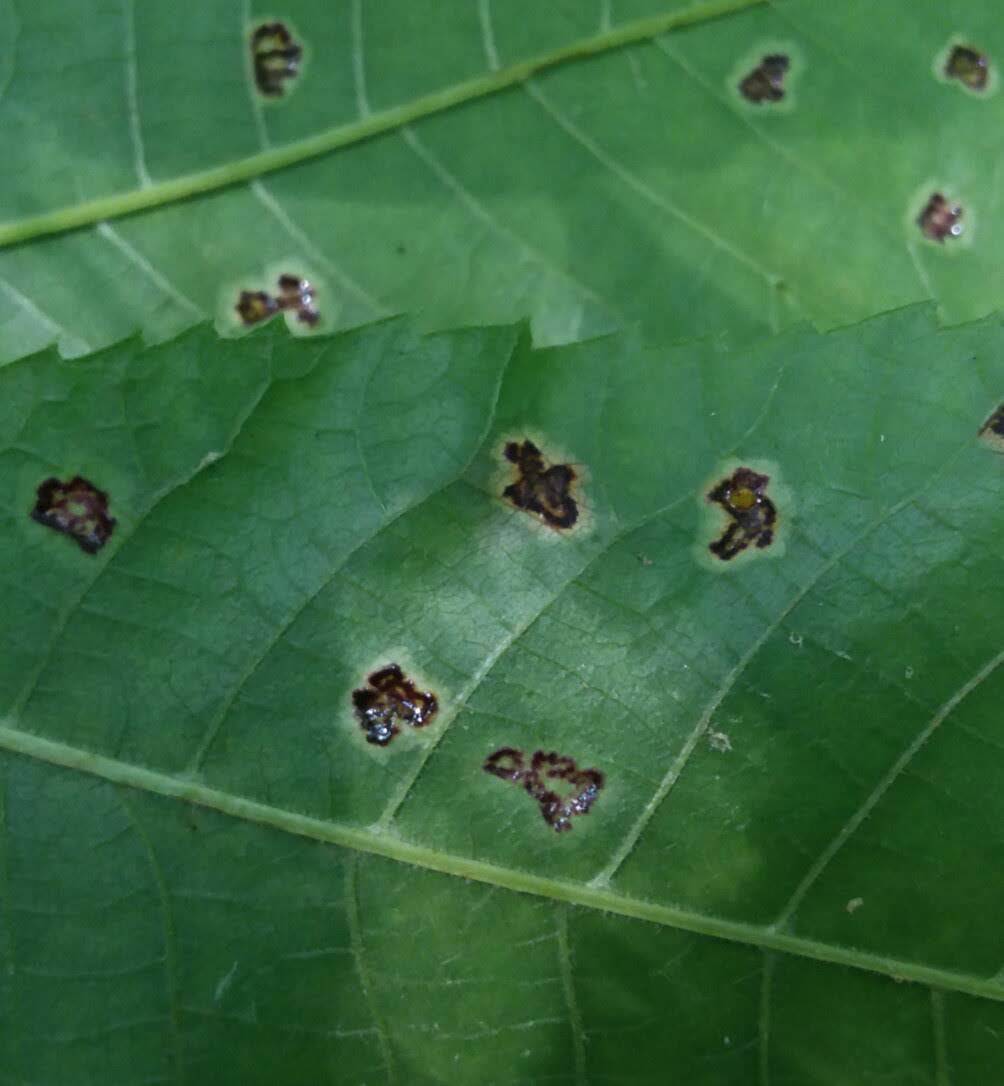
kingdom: Animalia
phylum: Arthropoda
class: Insecta
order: Diptera
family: Cecidomyiidae
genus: Gliaspilota
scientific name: Gliaspilota glutinosa
